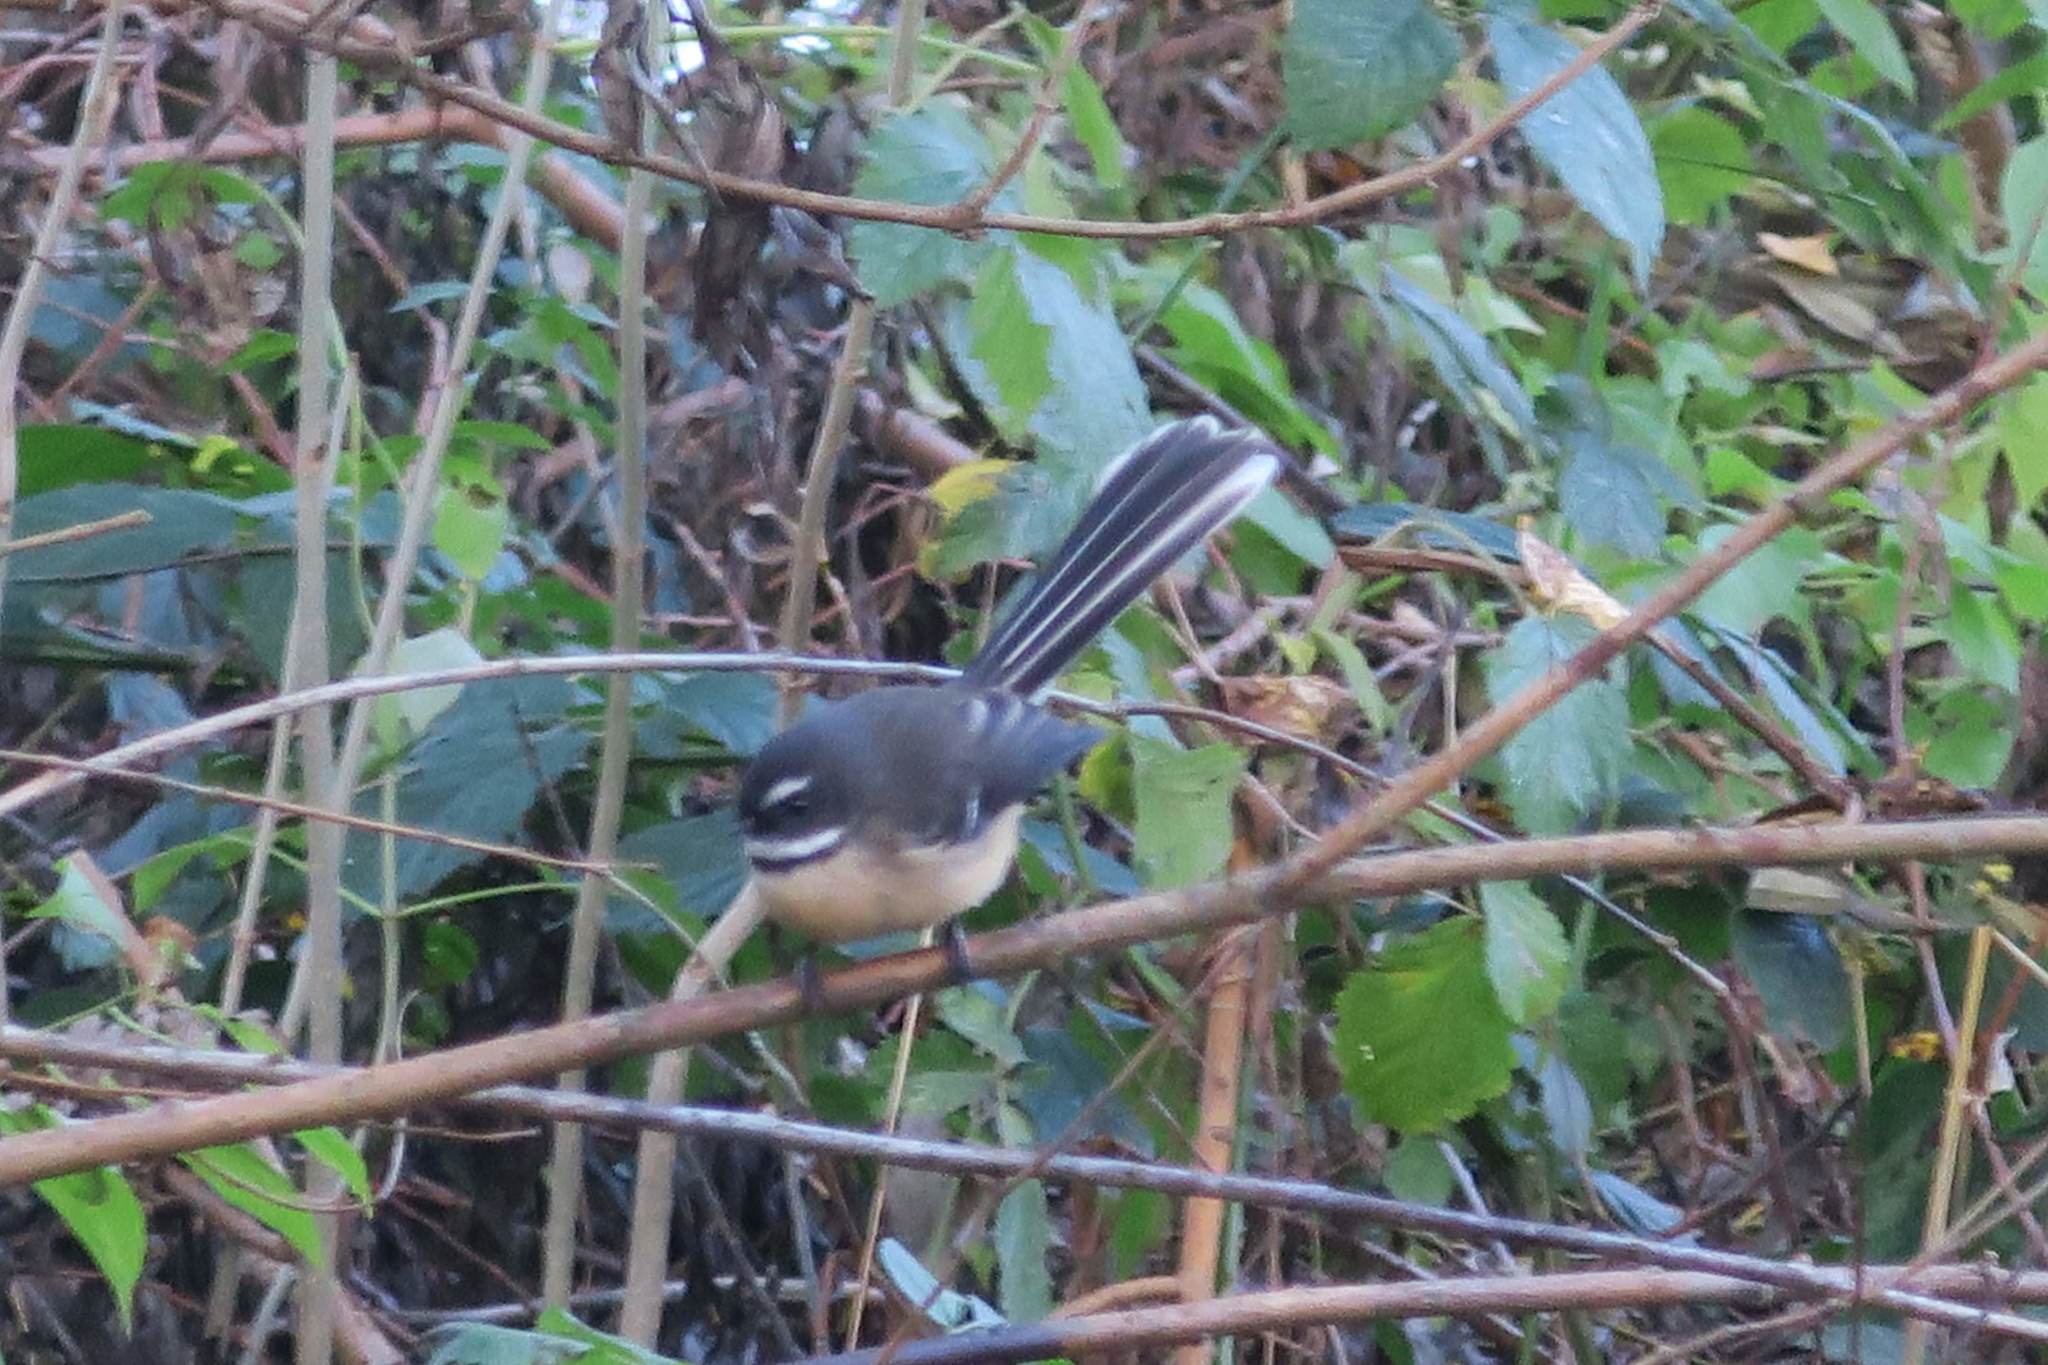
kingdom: Animalia
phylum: Chordata
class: Aves
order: Passeriformes
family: Rhipiduridae
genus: Rhipidura
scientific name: Rhipidura fuliginosa
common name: New zealand fantail
